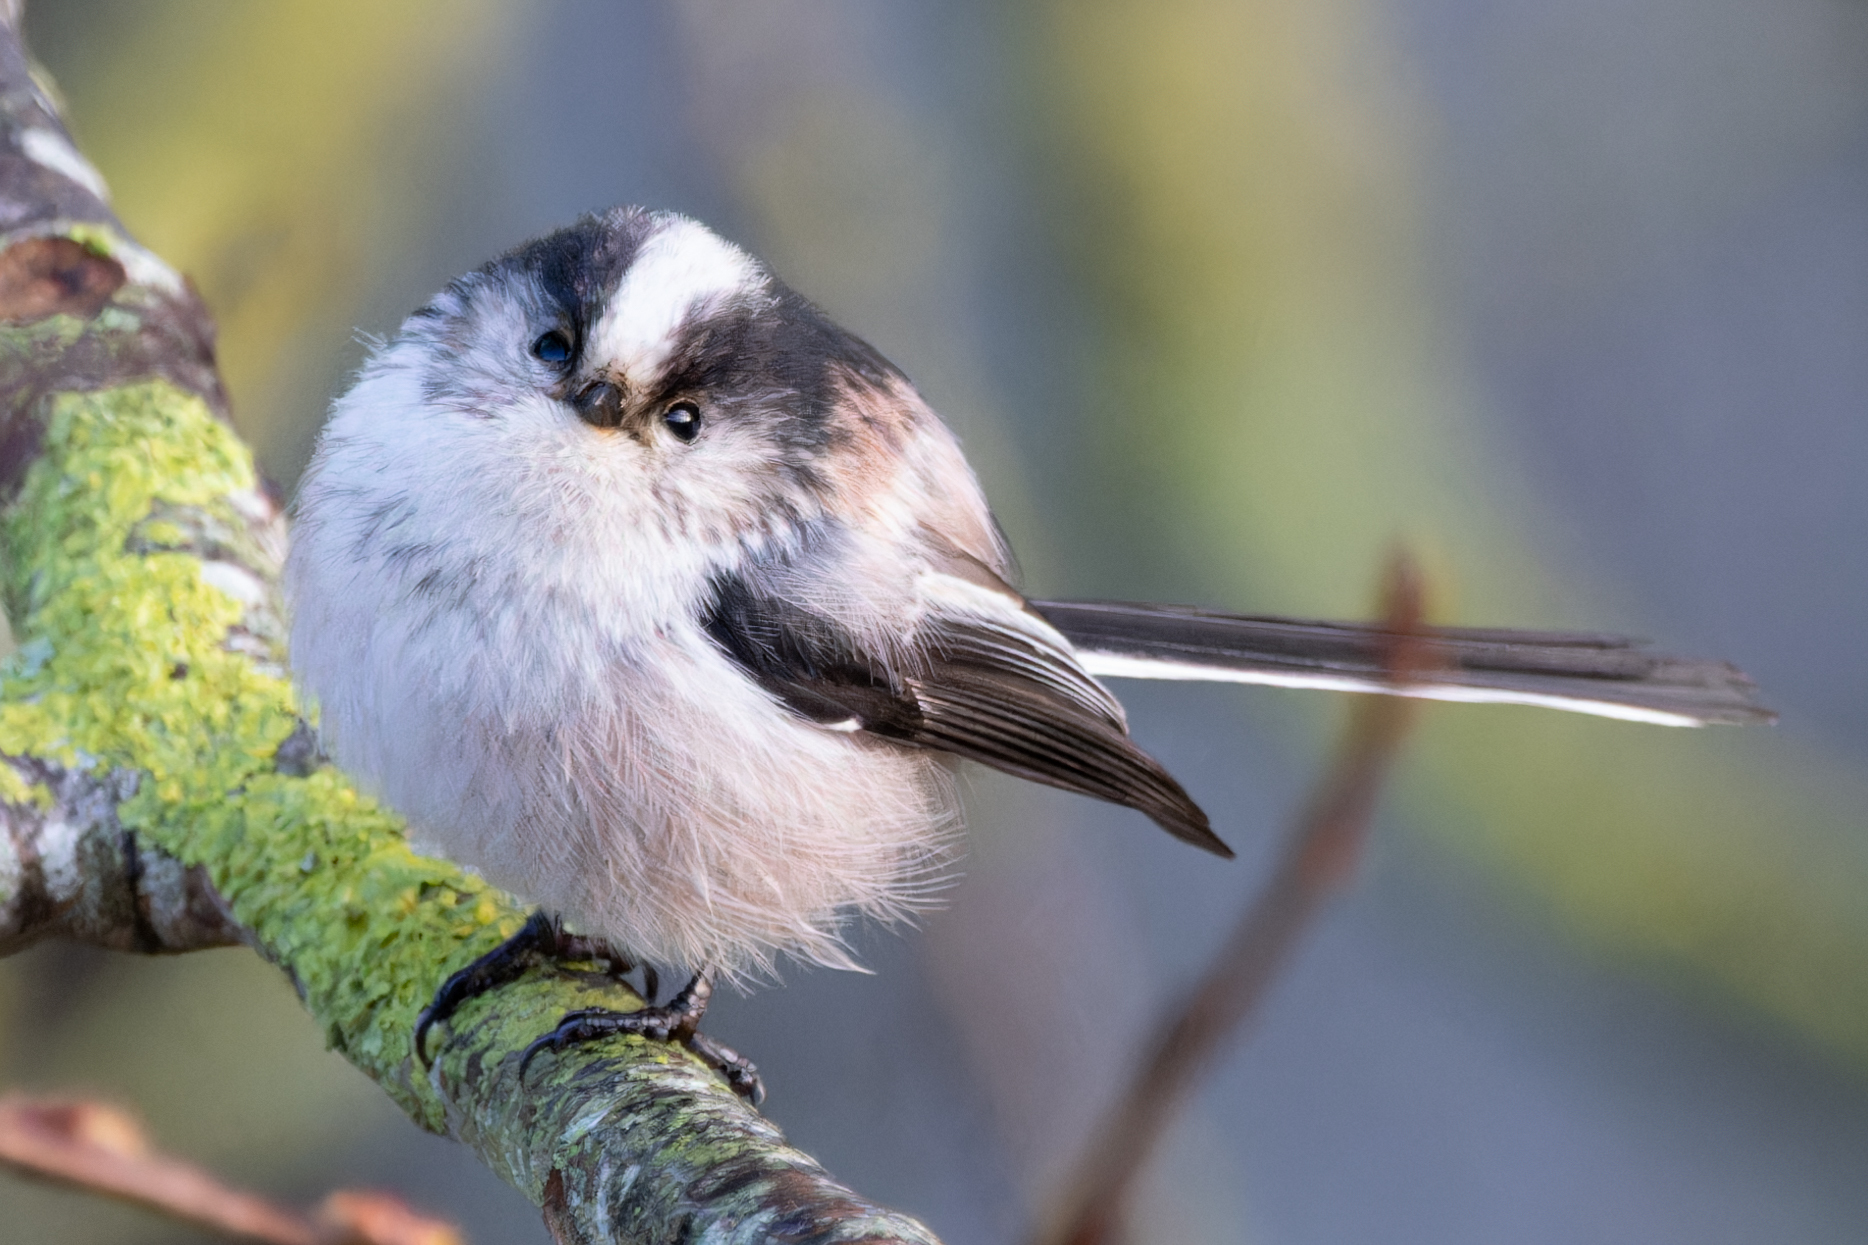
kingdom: Animalia
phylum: Chordata
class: Aves
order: Passeriformes
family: Aegithalidae
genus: Aegithalos
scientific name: Aegithalos caudatus
